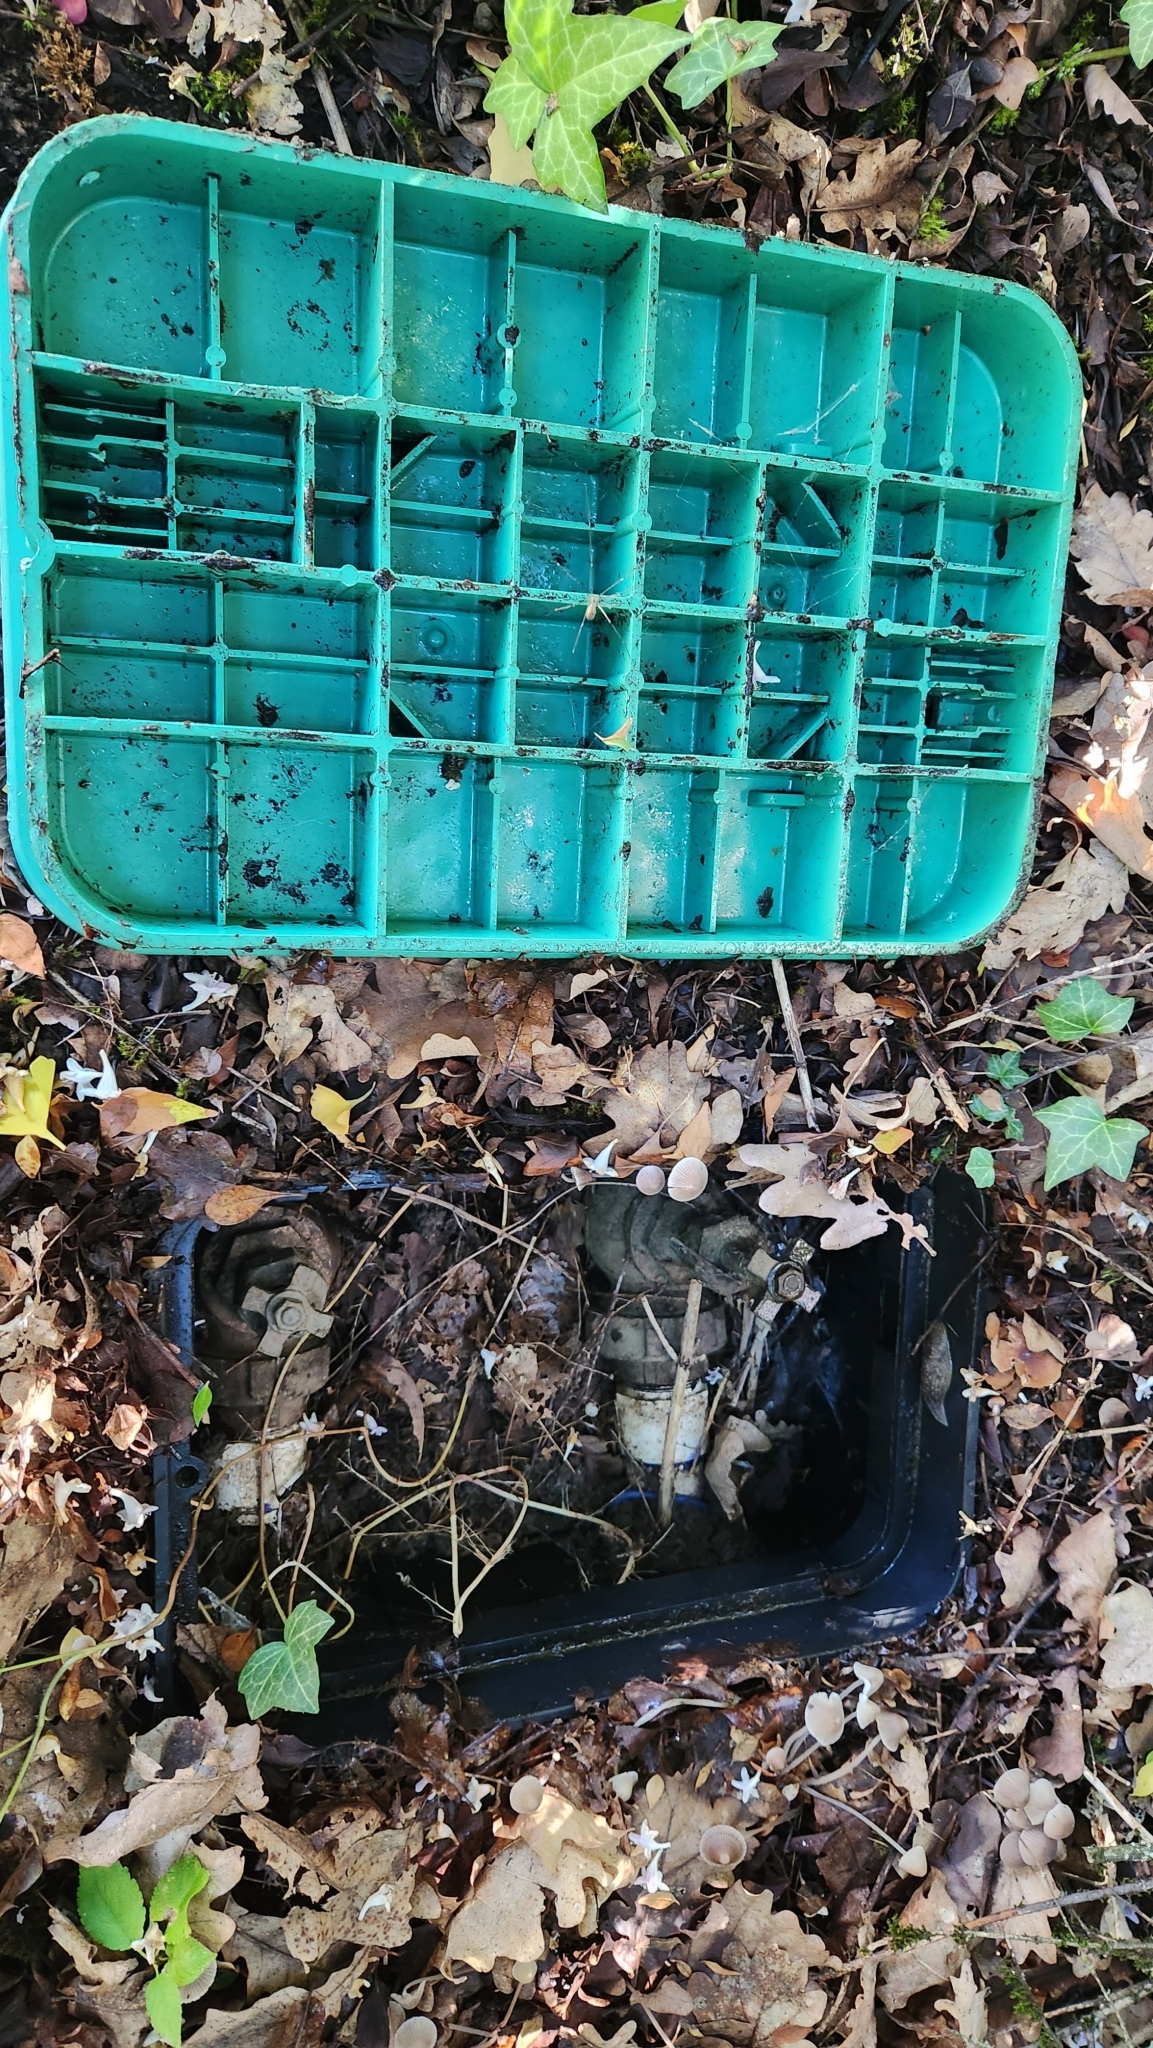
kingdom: Animalia
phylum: Mollusca
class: Gastropoda
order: Stylommatophora
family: Limacidae
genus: Limacus
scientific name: Limacus flavus
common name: Yellow gardenslug
